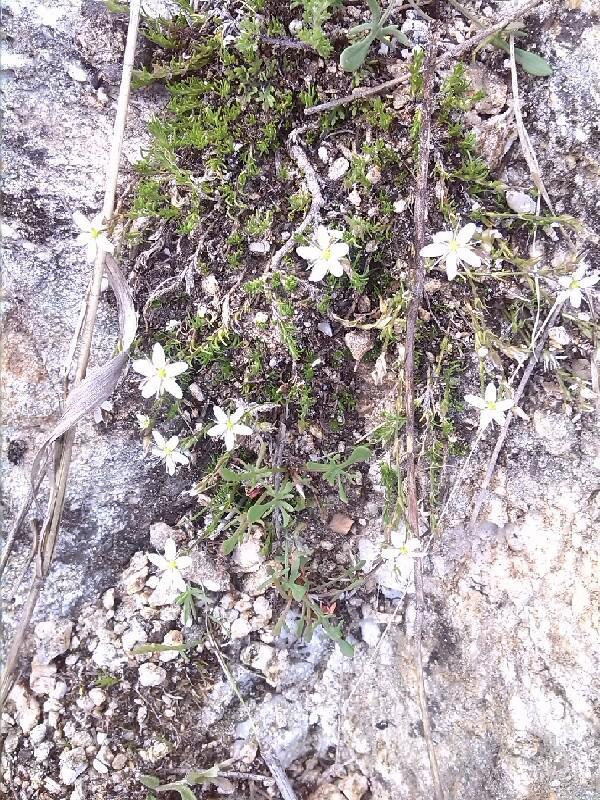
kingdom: Plantae
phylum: Tracheophyta
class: Magnoliopsida
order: Caryophyllales
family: Caryophyllaceae
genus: Psammophiliella
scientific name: Psammophiliella muralis
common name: Cushion baby's-breath
